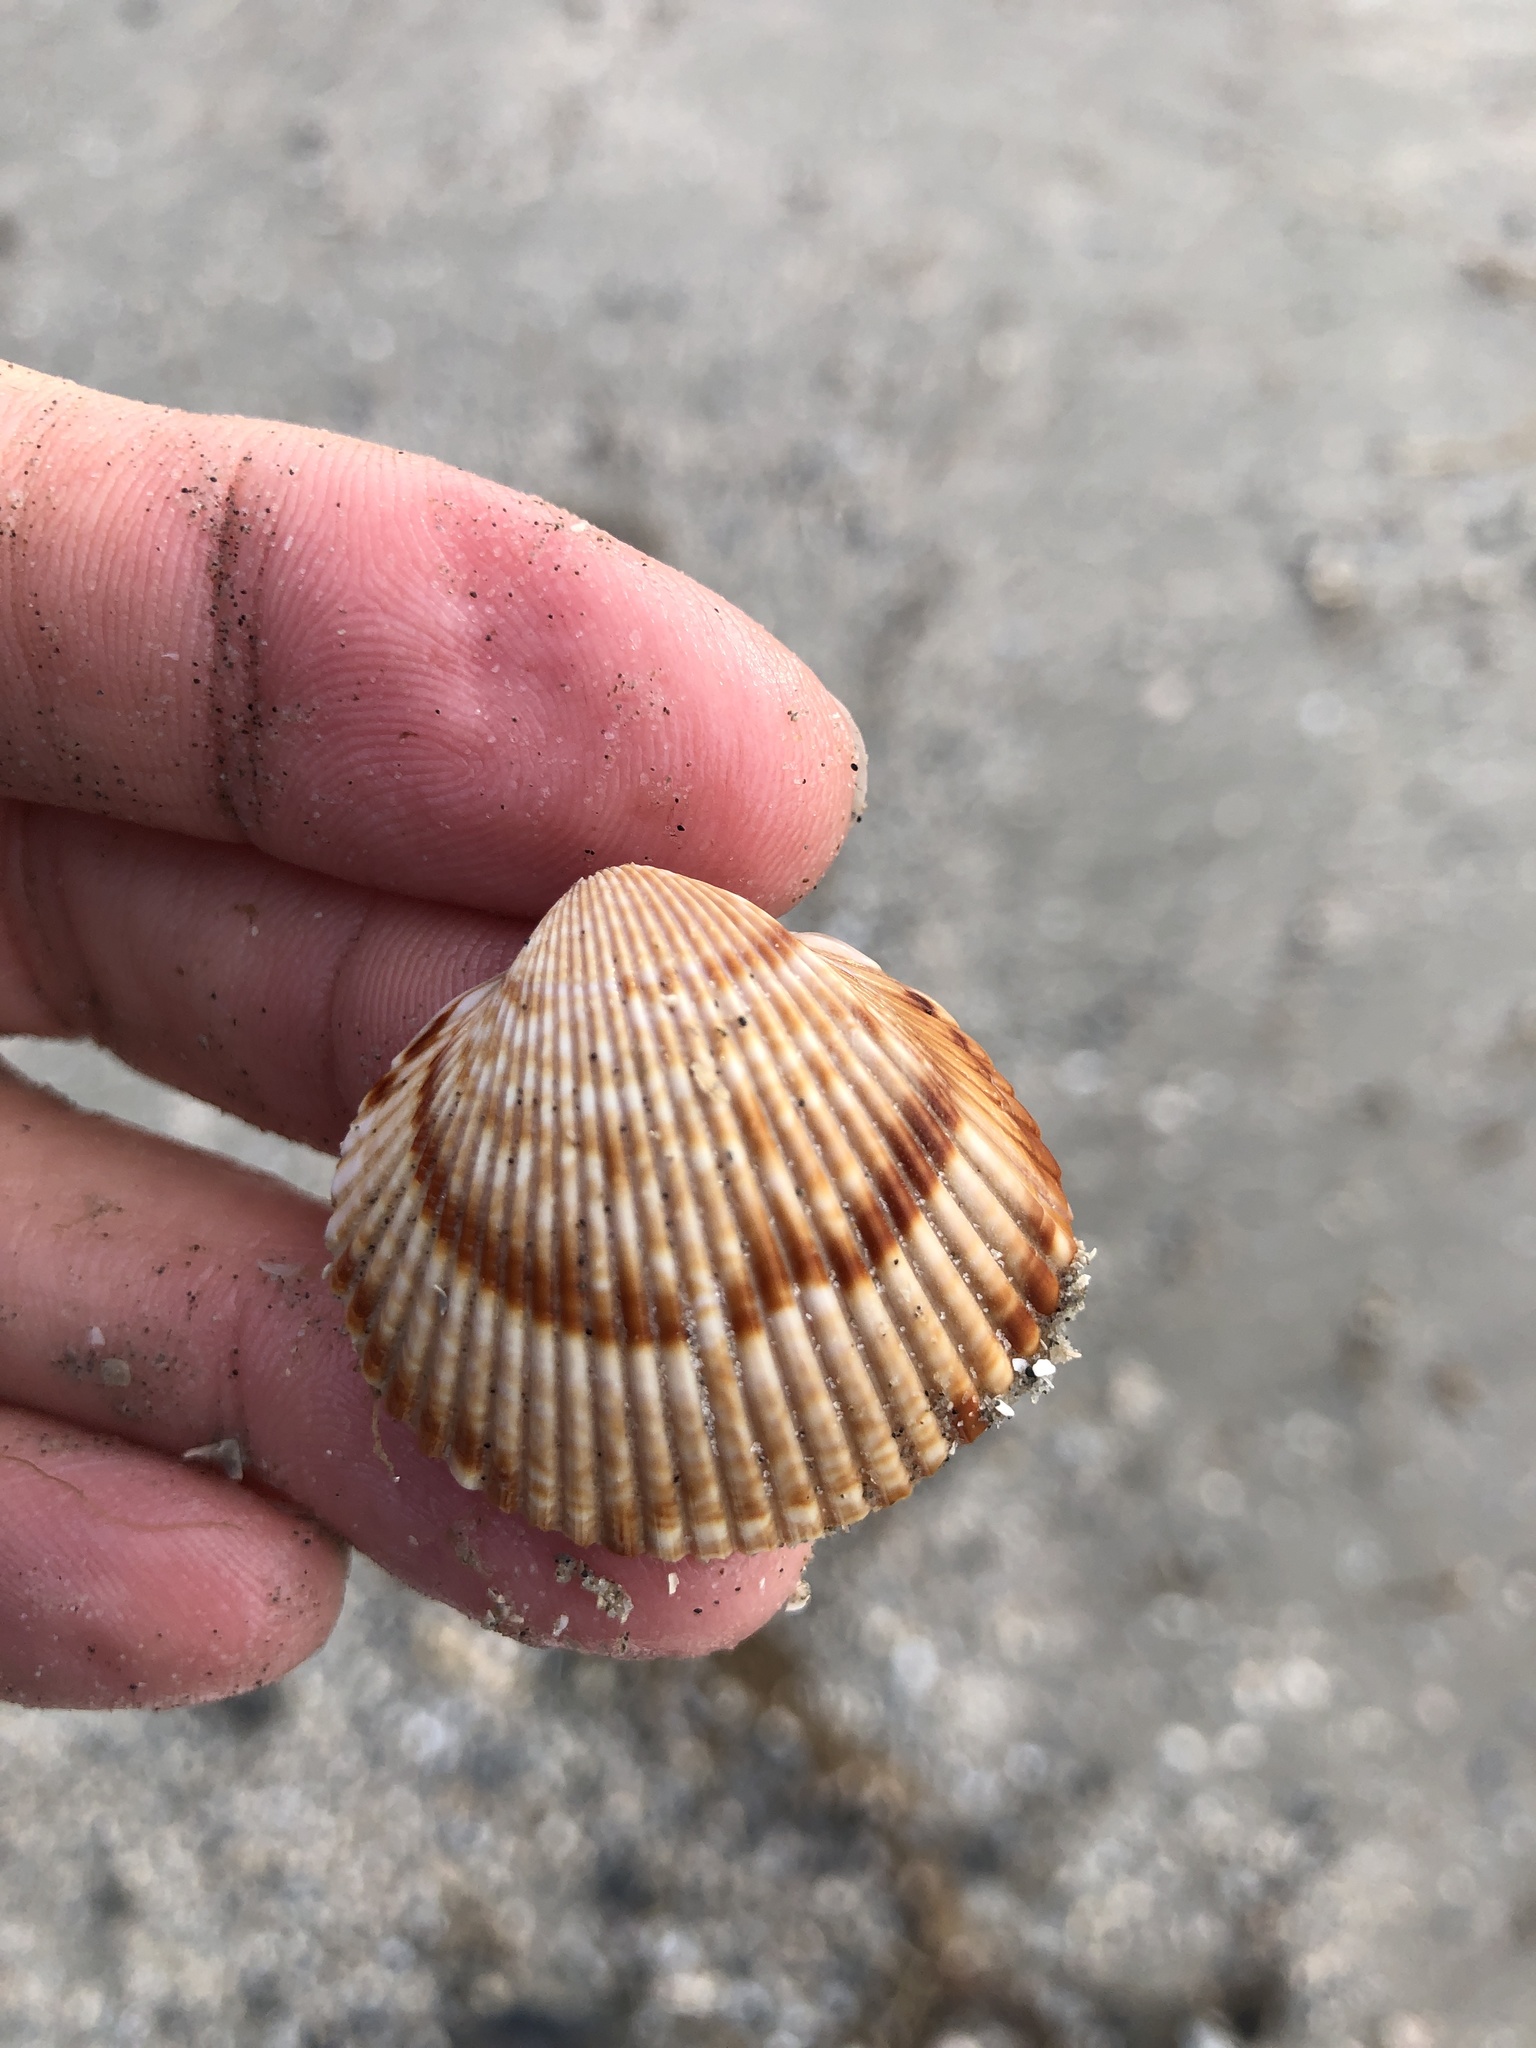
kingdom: Animalia
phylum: Mollusca
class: Bivalvia
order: Cardiida
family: Cardiidae
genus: Dinocardium
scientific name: Dinocardium robustum
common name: Atlantic giant cockle
